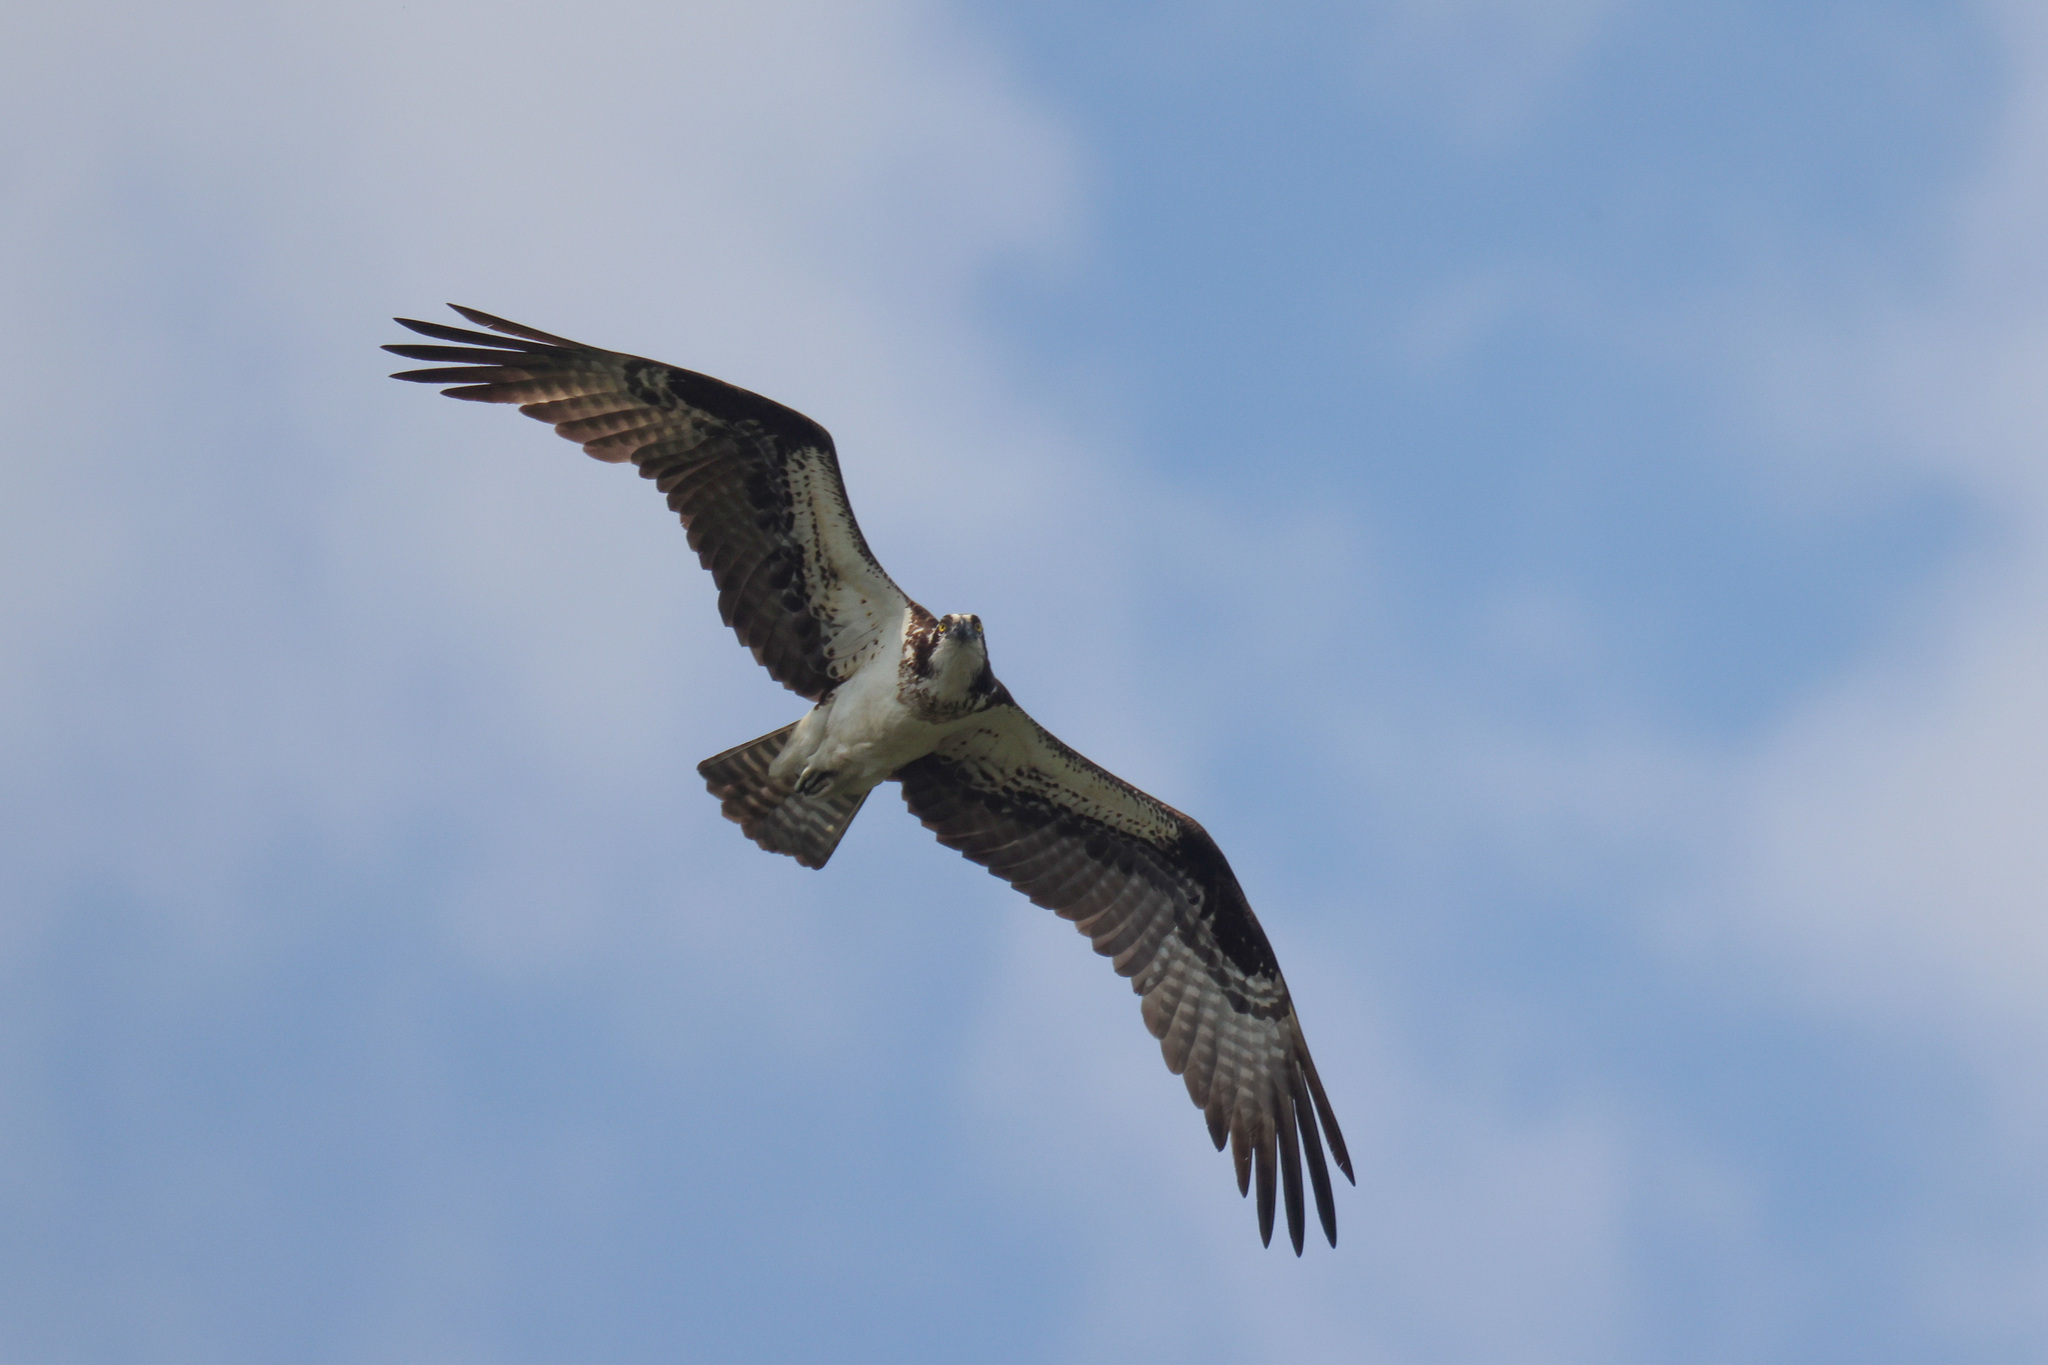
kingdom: Animalia
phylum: Chordata
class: Aves
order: Accipitriformes
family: Pandionidae
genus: Pandion
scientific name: Pandion haliaetus
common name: Osprey
